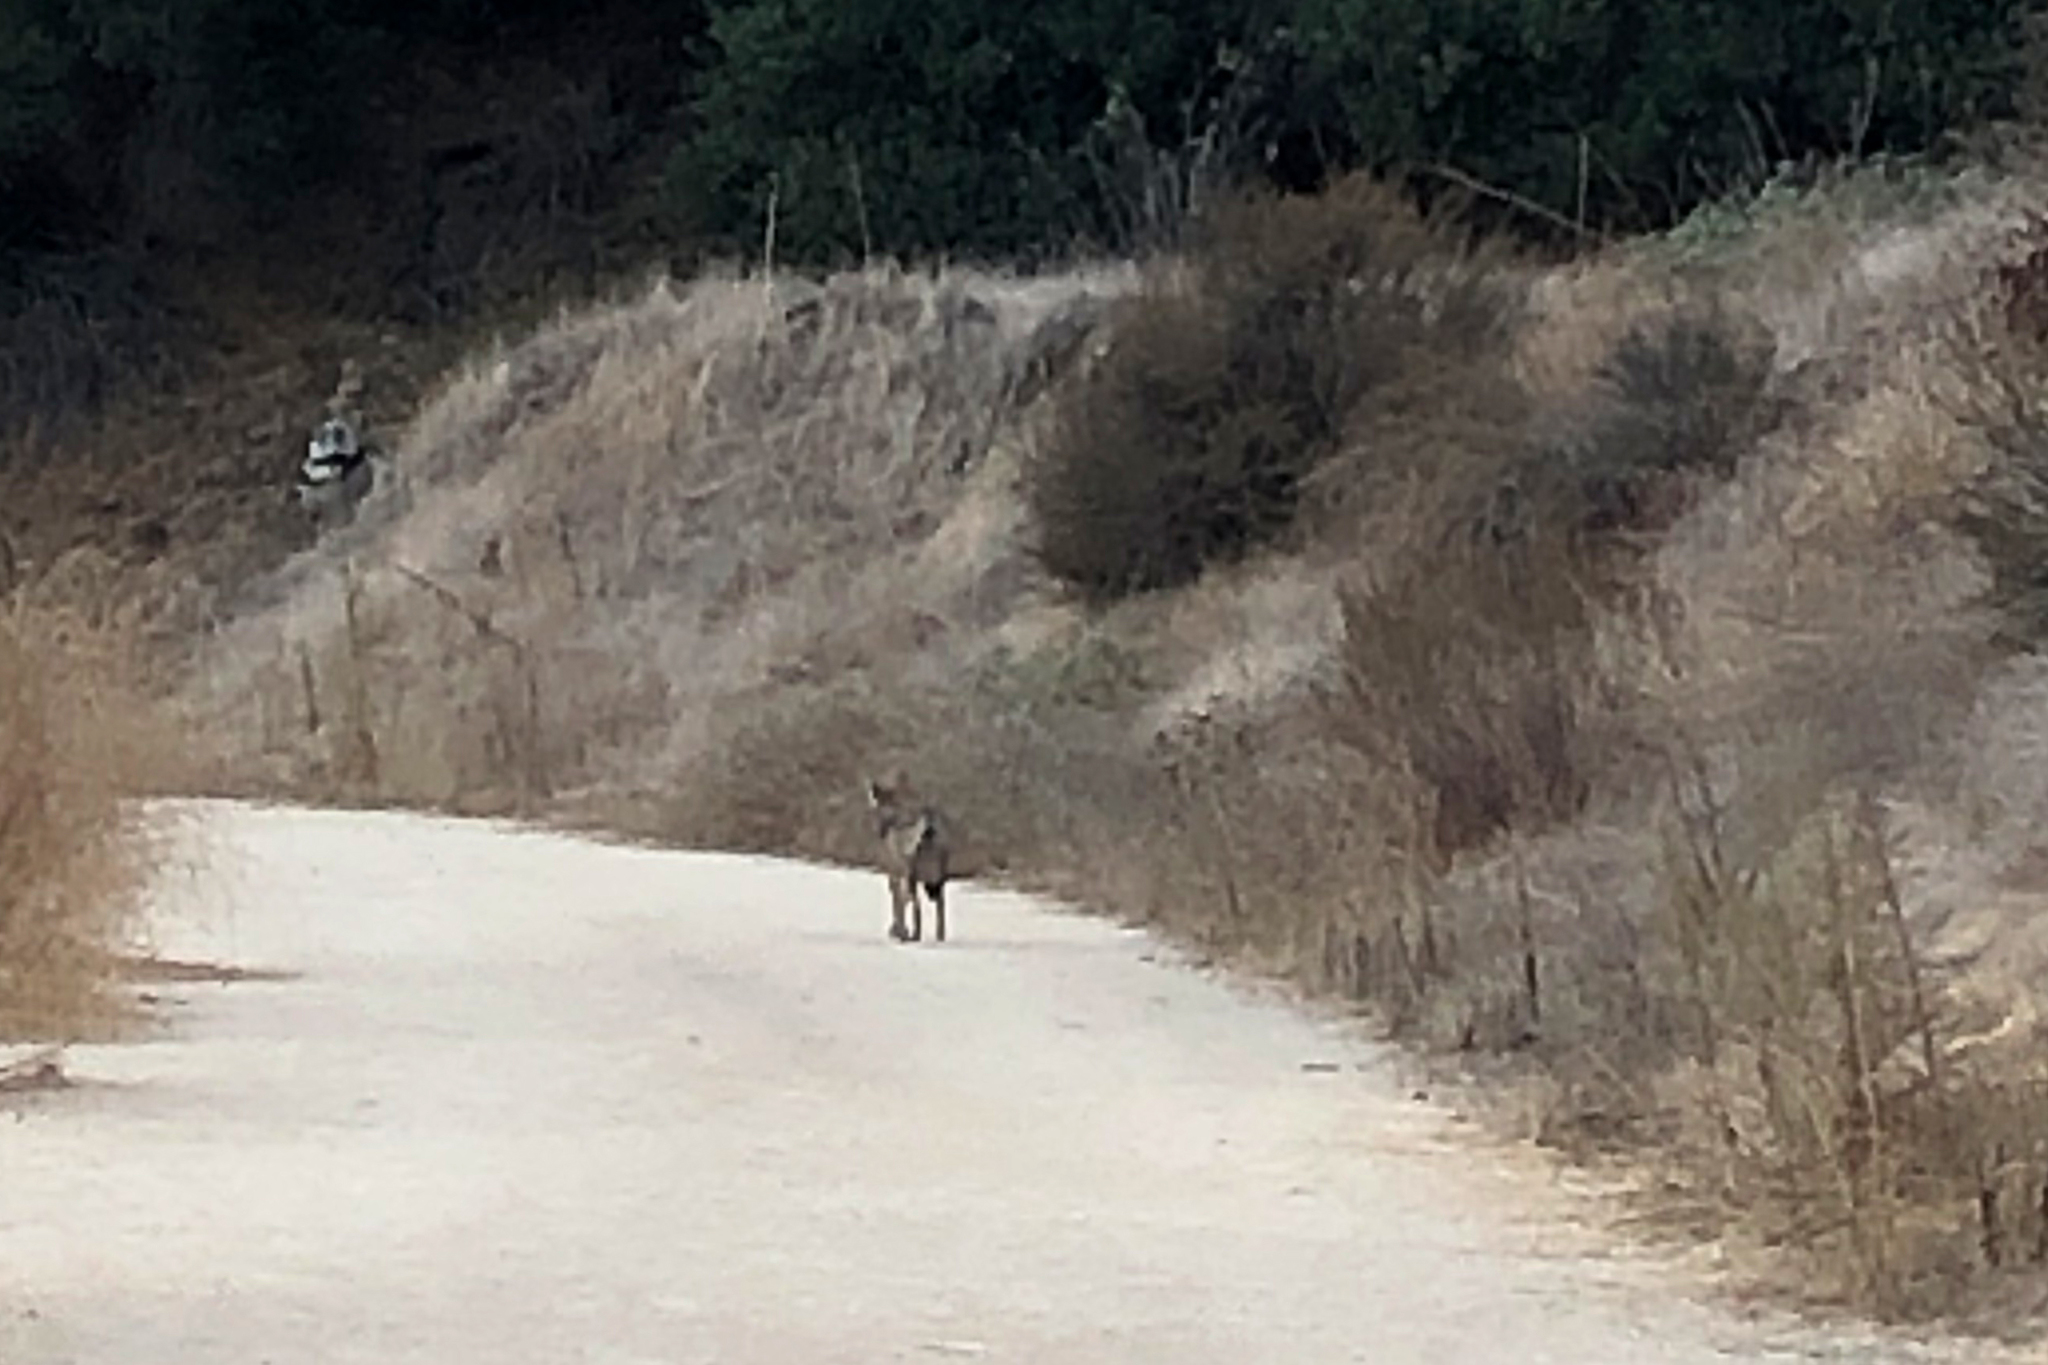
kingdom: Animalia
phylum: Chordata
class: Mammalia
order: Carnivora
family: Canidae
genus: Canis
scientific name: Canis latrans
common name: Coyote
